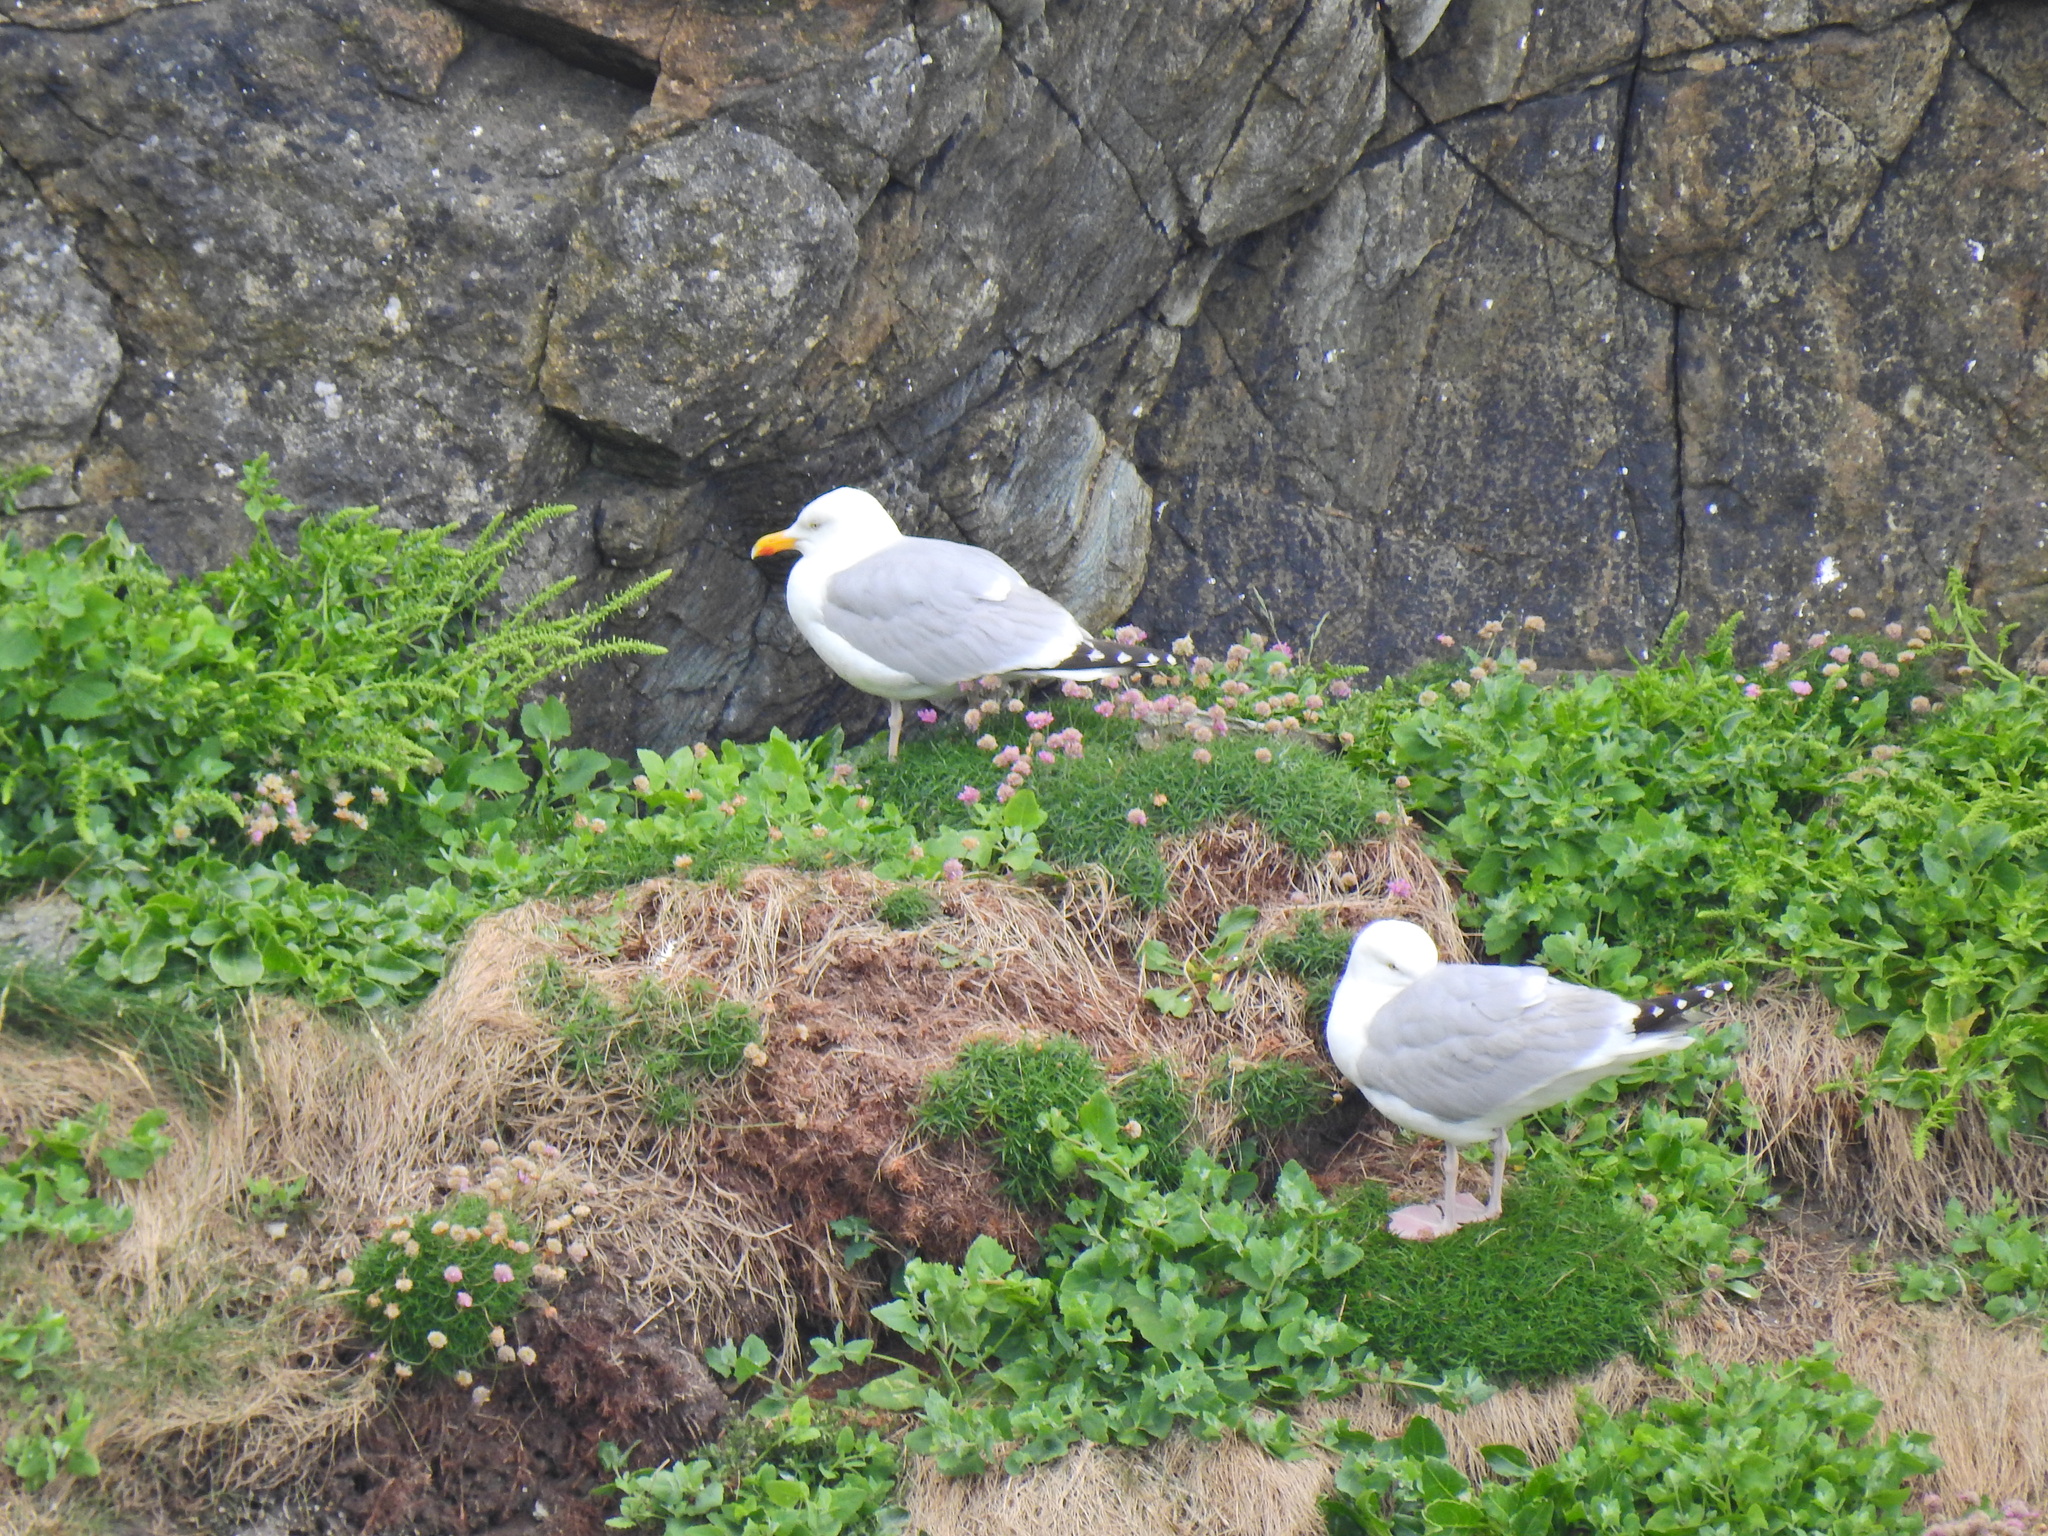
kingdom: Animalia
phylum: Chordata
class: Aves
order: Charadriiformes
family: Laridae
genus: Larus
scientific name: Larus argentatus
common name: Herring gull
